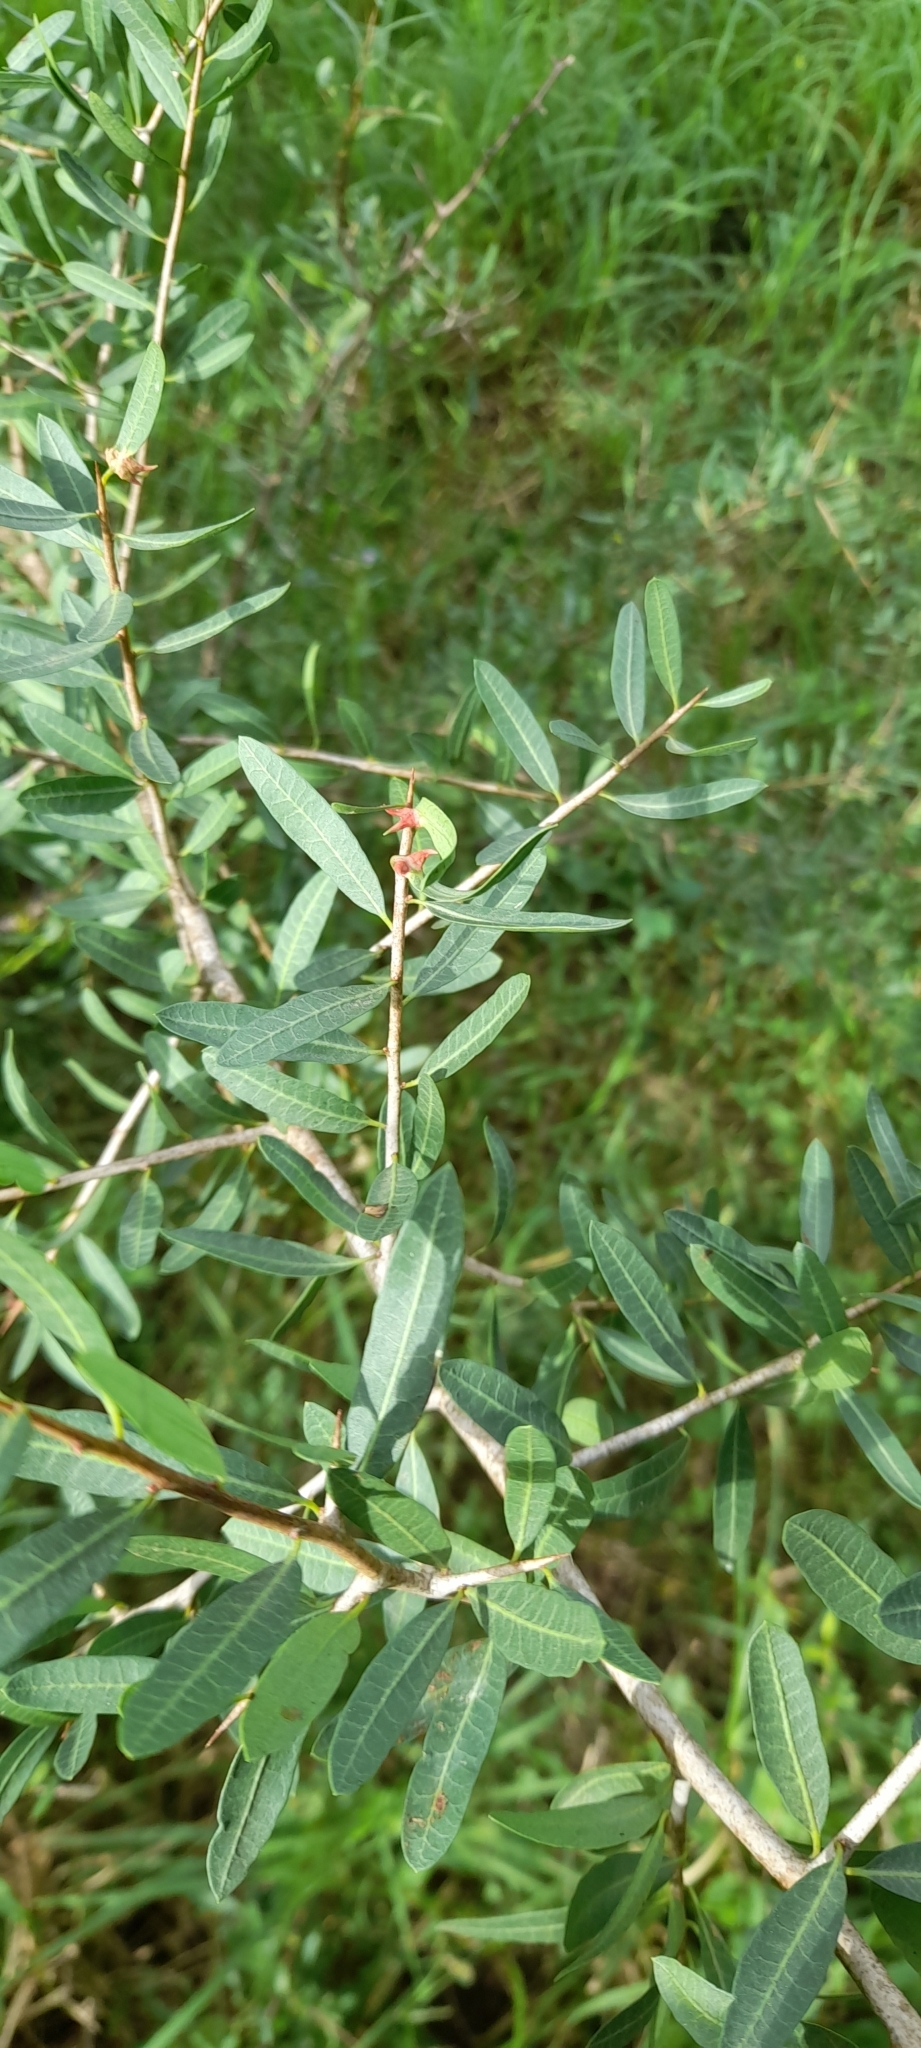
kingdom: Plantae
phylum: Tracheophyta
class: Magnoliopsida
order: Sapindales
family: Anacardiaceae
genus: Schinus
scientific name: Schinus longifolia
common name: Longleaf peppertree
